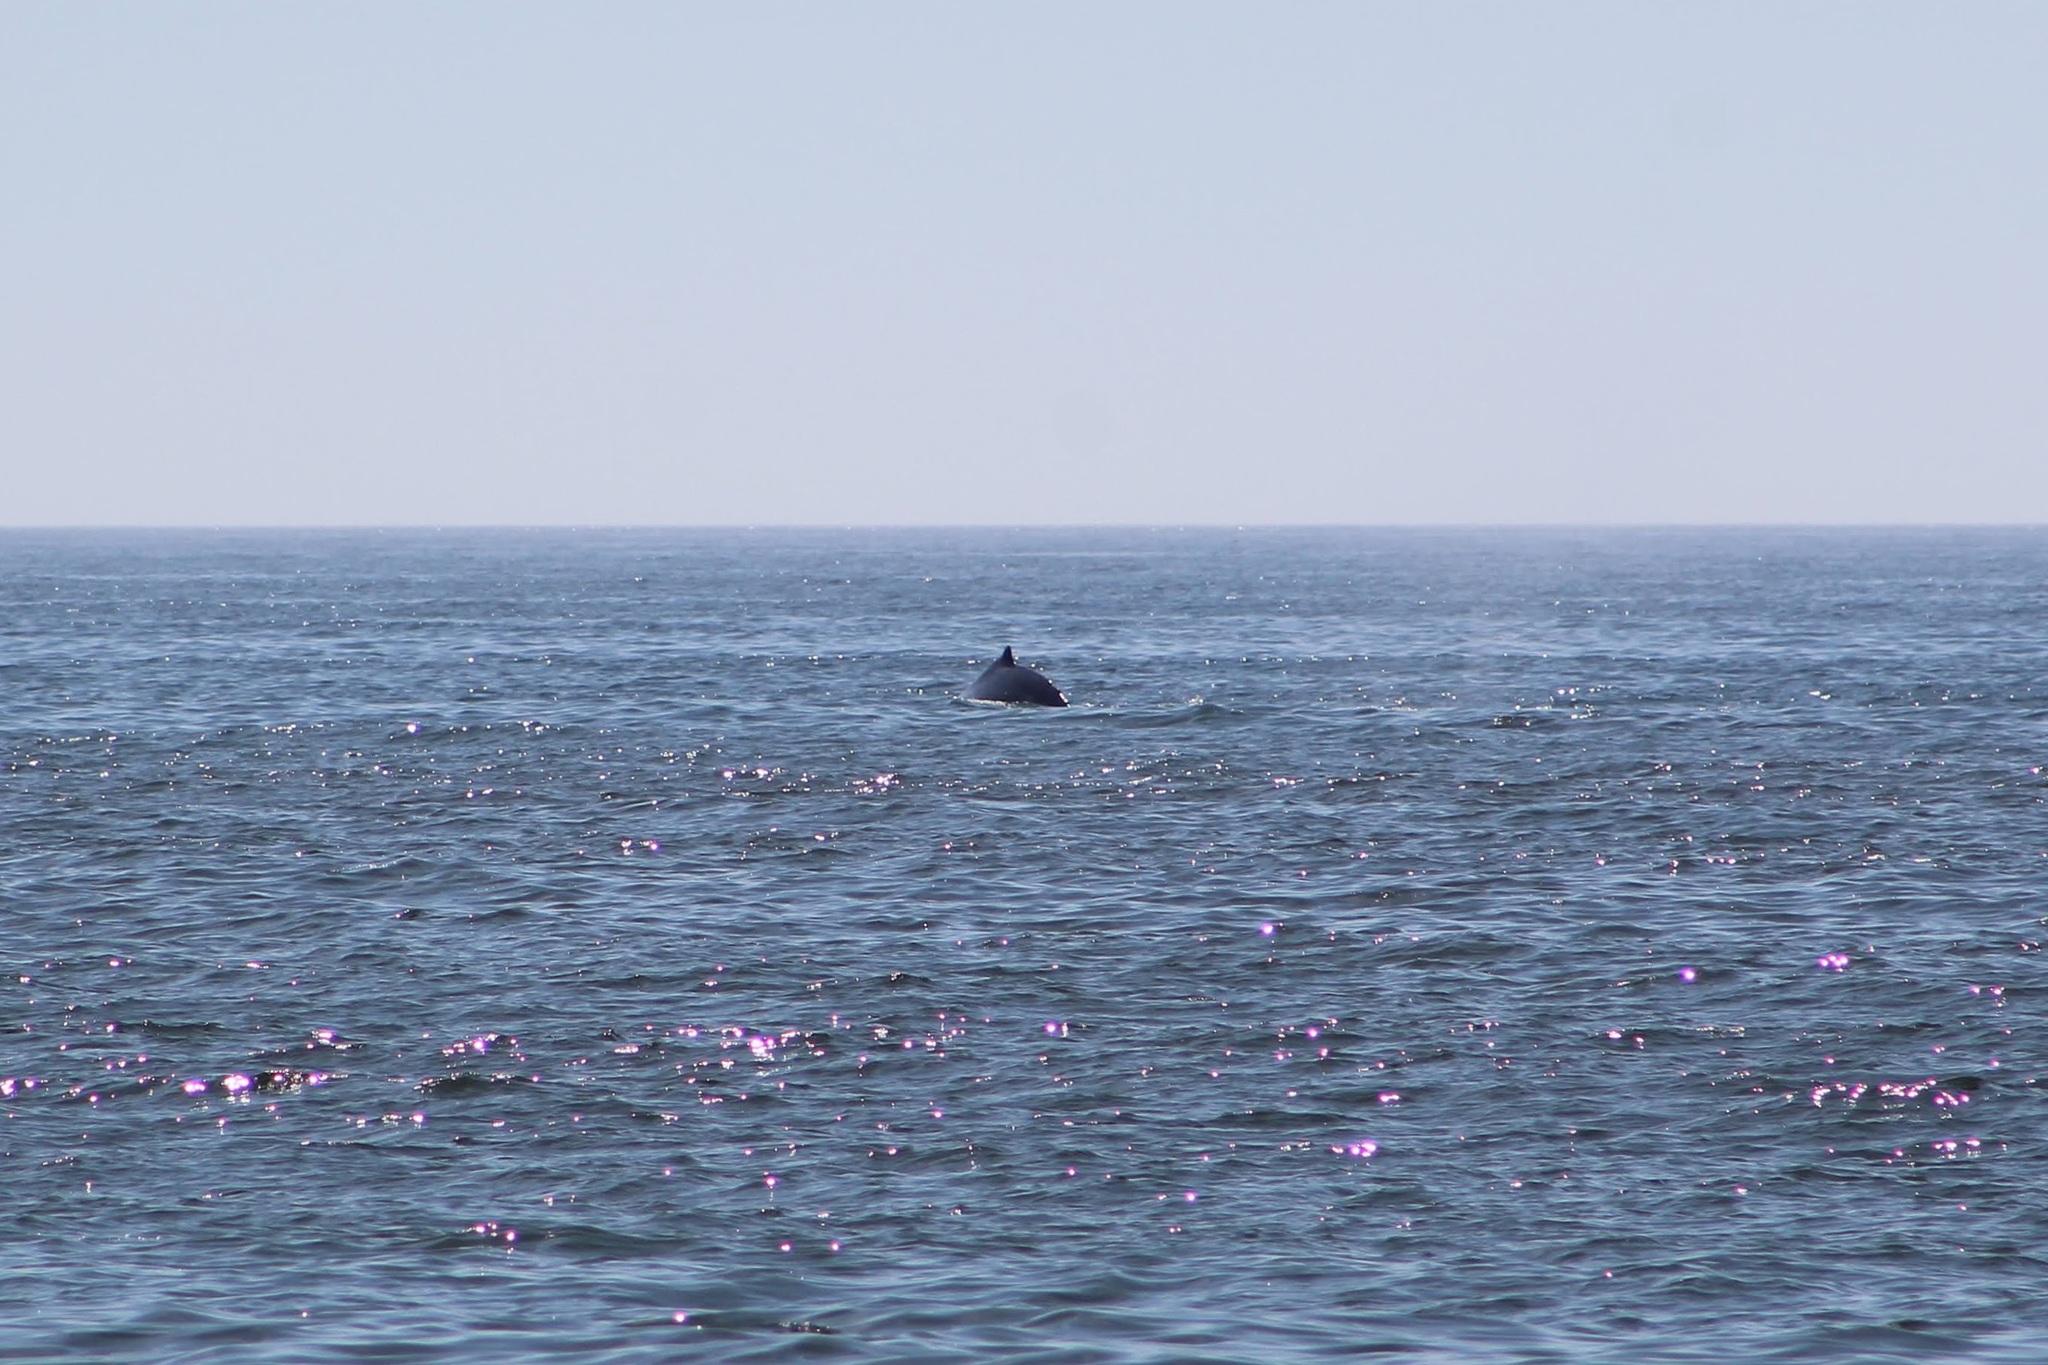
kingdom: Animalia
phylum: Chordata
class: Mammalia
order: Cetacea
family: Balaenopteridae
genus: Megaptera
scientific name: Megaptera novaeangliae
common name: Humpback whale
